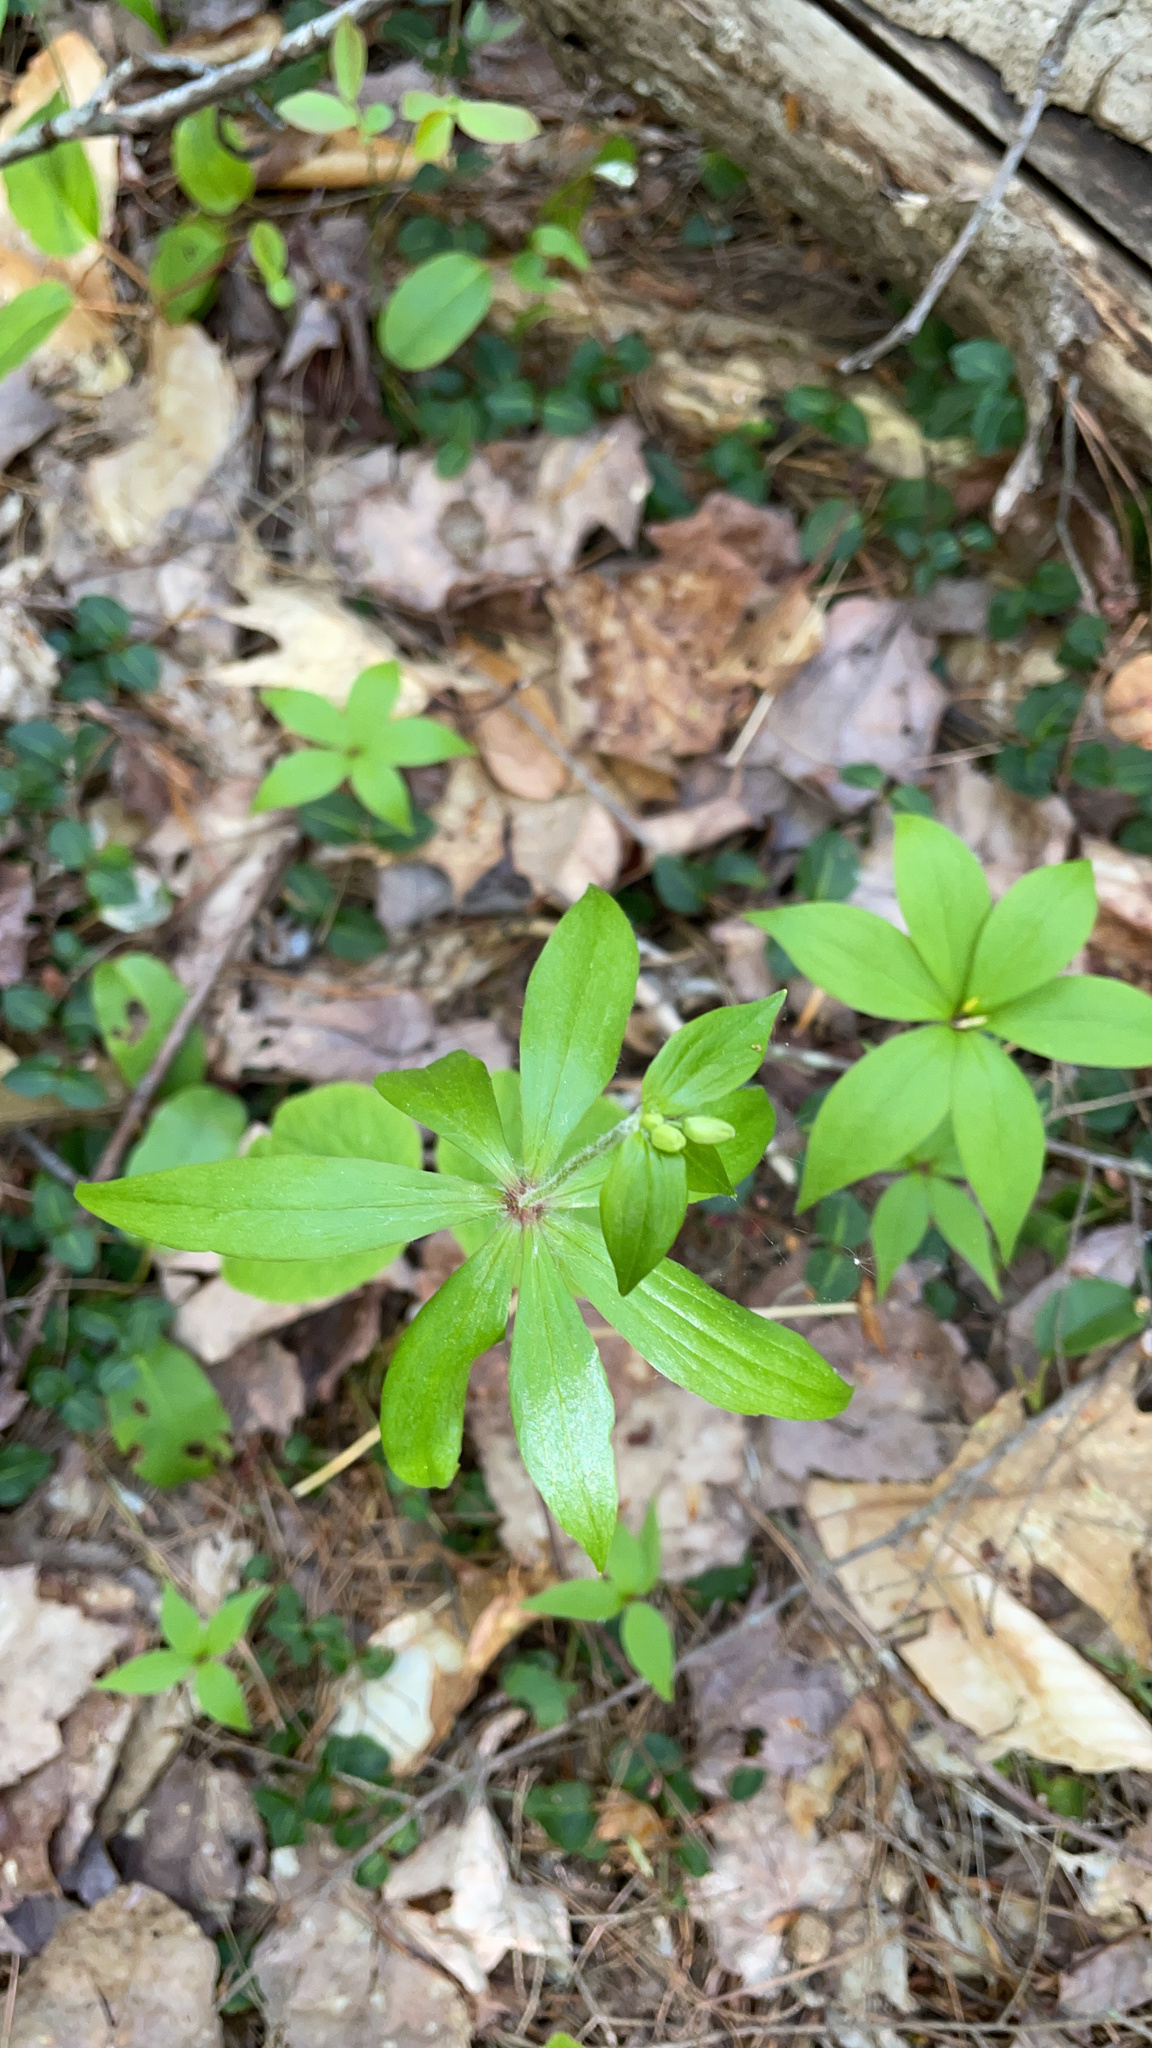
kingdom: Plantae
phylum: Tracheophyta
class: Liliopsida
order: Liliales
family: Liliaceae
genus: Medeola
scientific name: Medeola virginiana
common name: Indian cucumber-root
